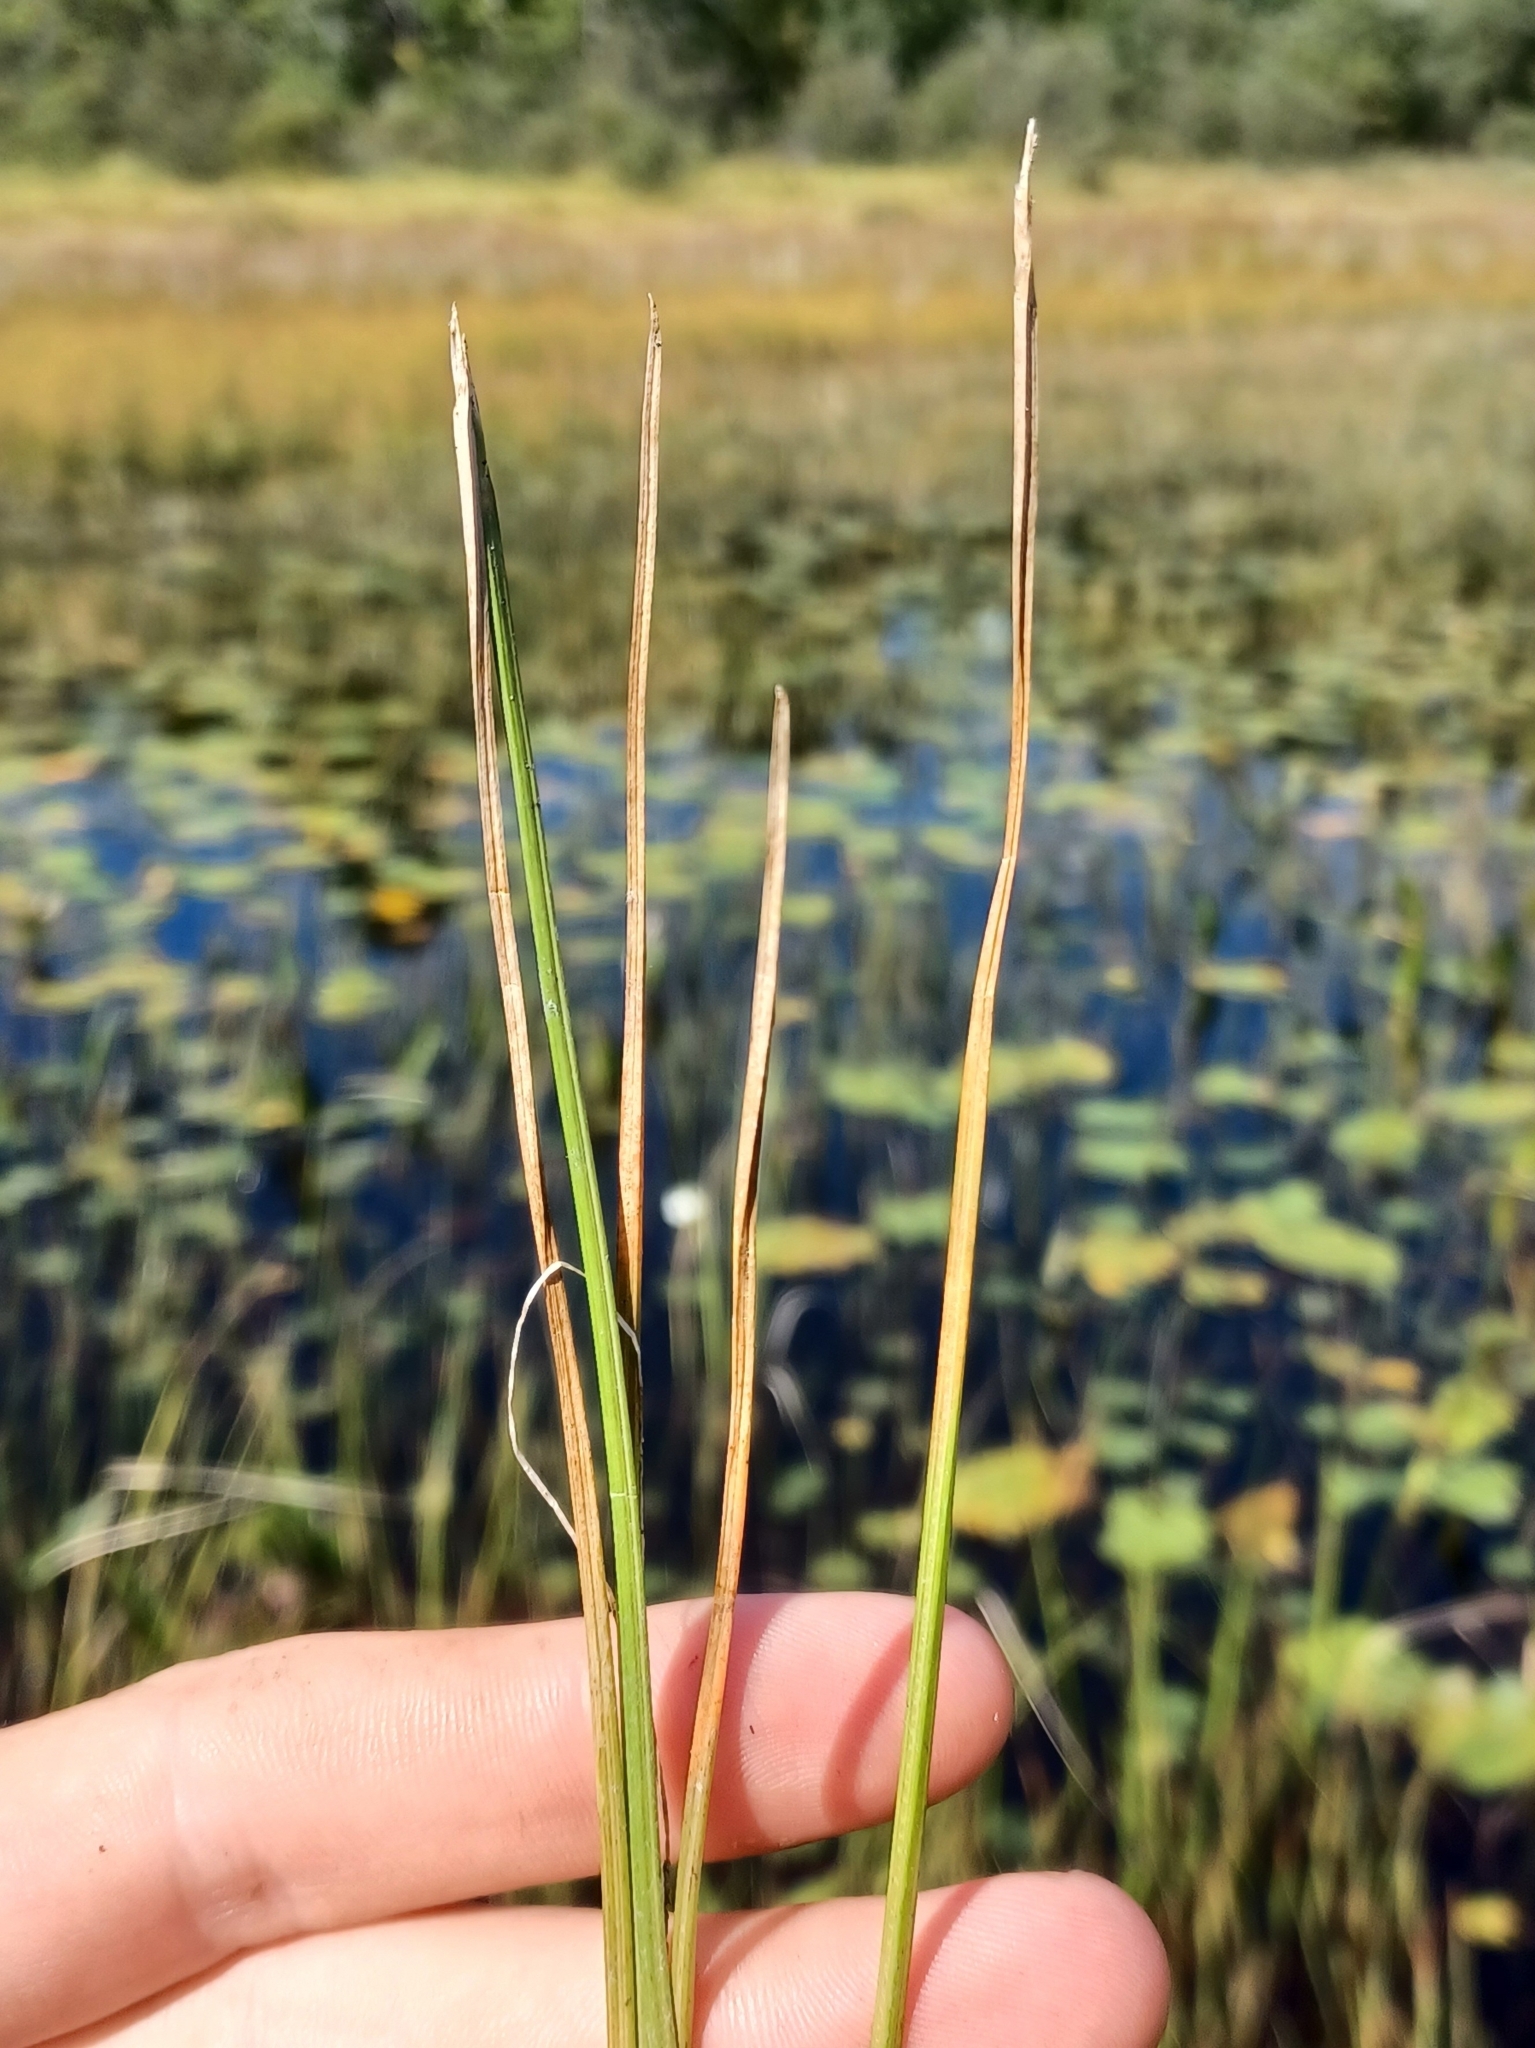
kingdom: Plantae
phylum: Tracheophyta
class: Liliopsida
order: Poales
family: Cyperaceae
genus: Eleocharis
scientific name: Eleocharis robbinsii
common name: Robbins' spikerush
